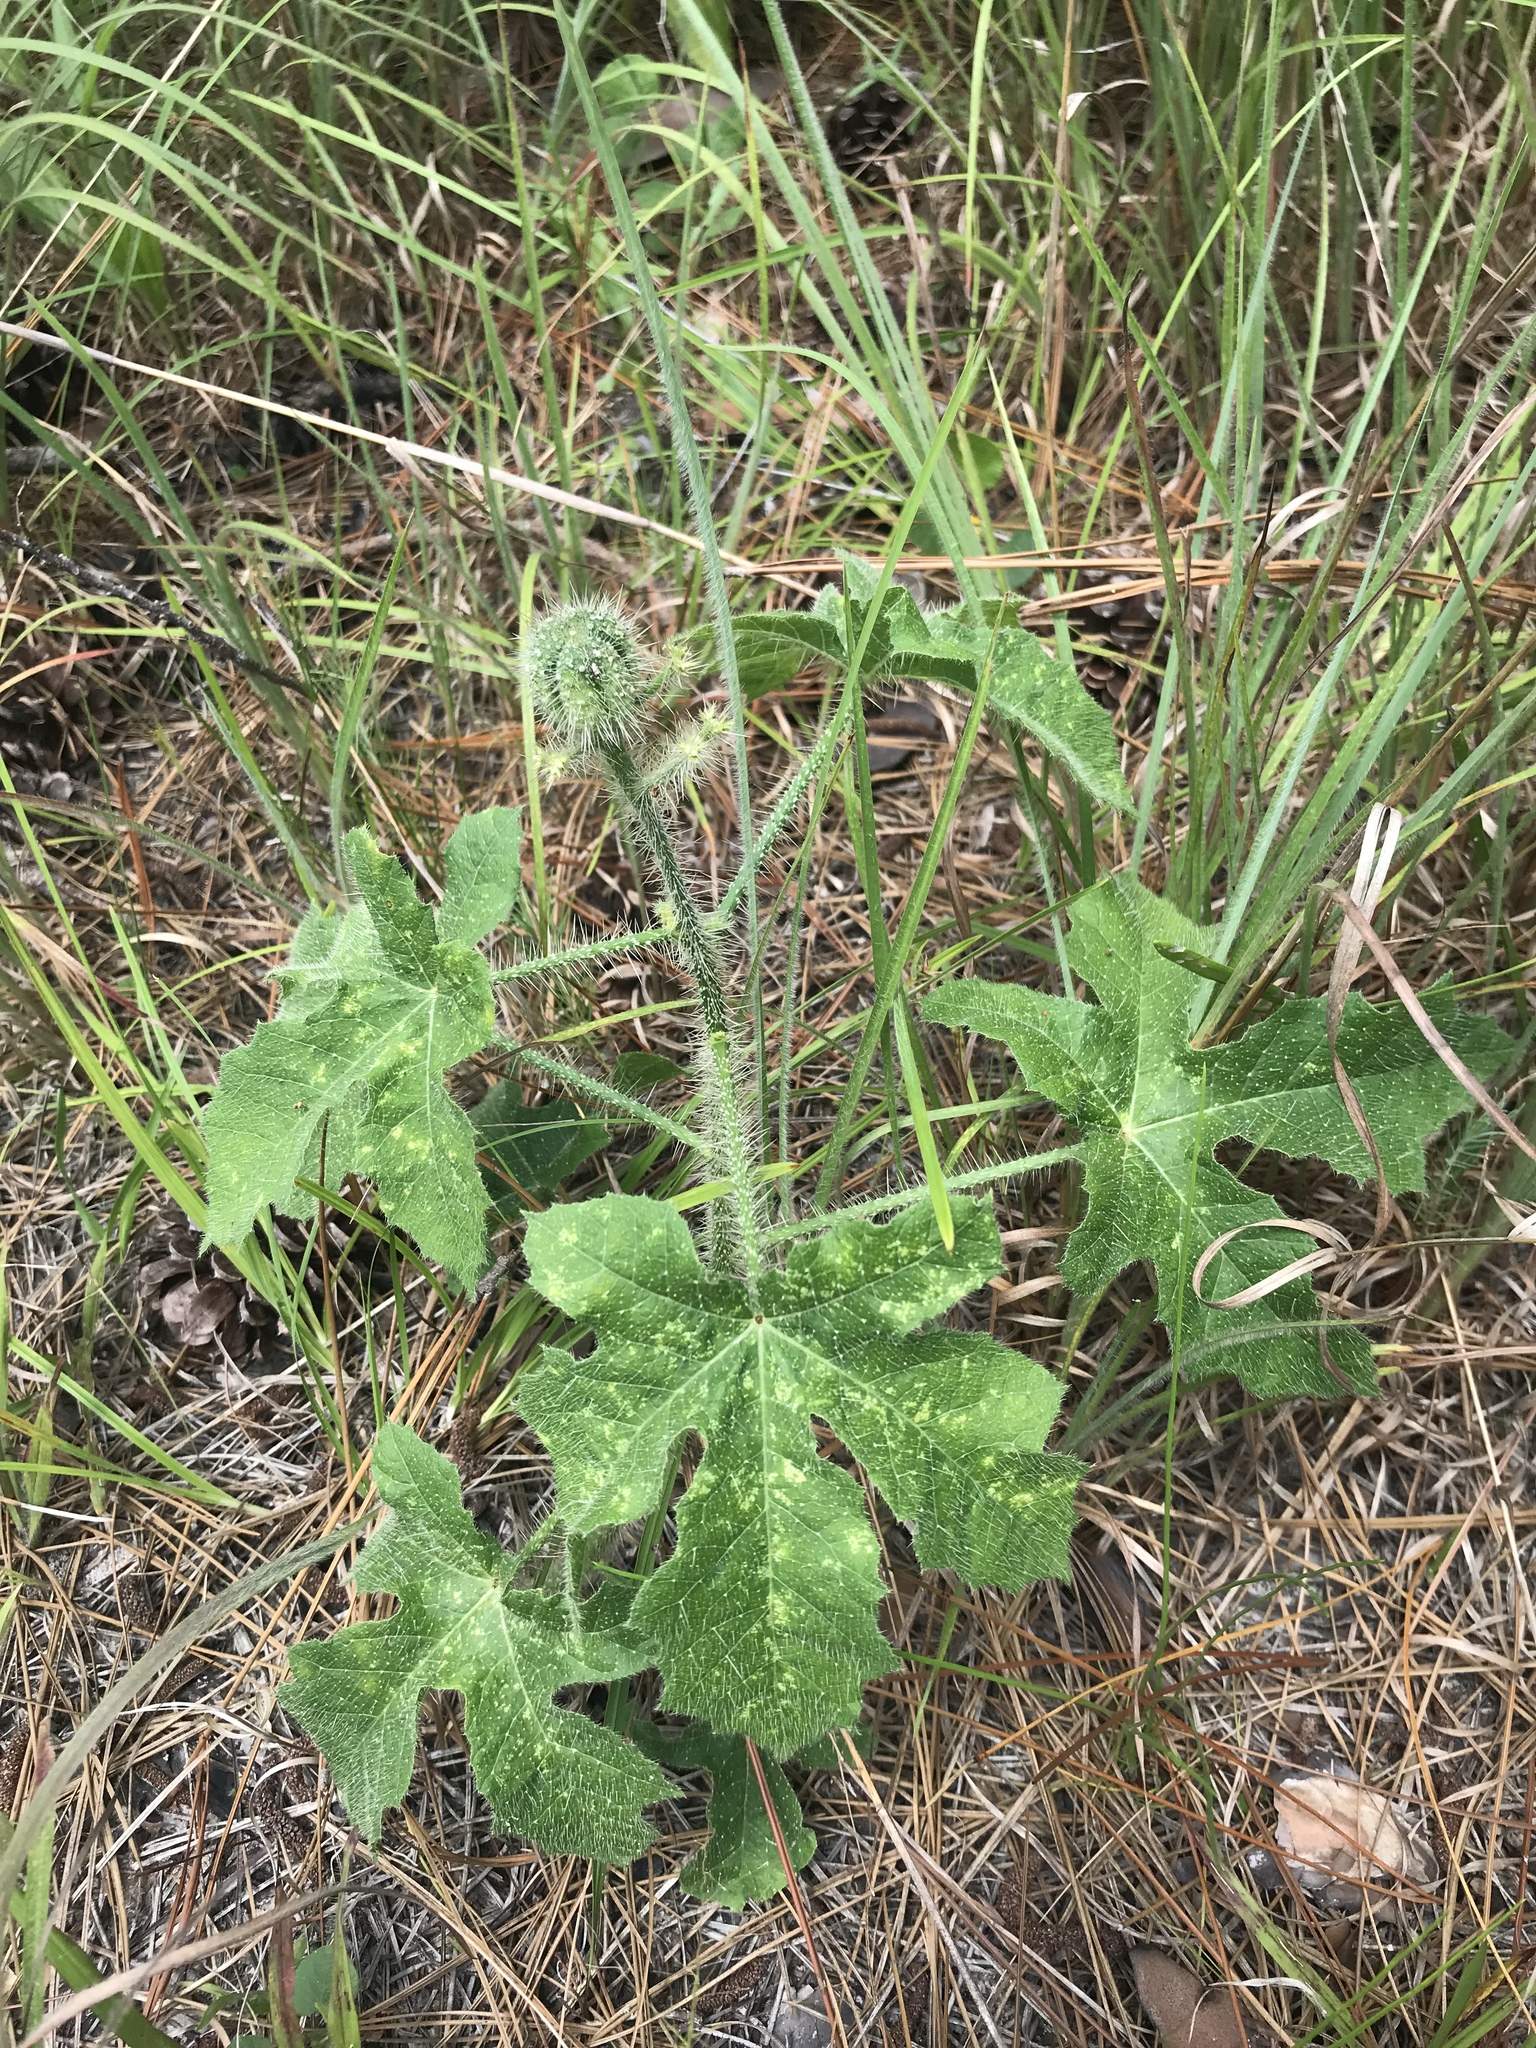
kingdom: Plantae
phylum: Tracheophyta
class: Magnoliopsida
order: Malpighiales
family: Euphorbiaceae
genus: Cnidoscolus
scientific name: Cnidoscolus texanus
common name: Texas bull-nettle
